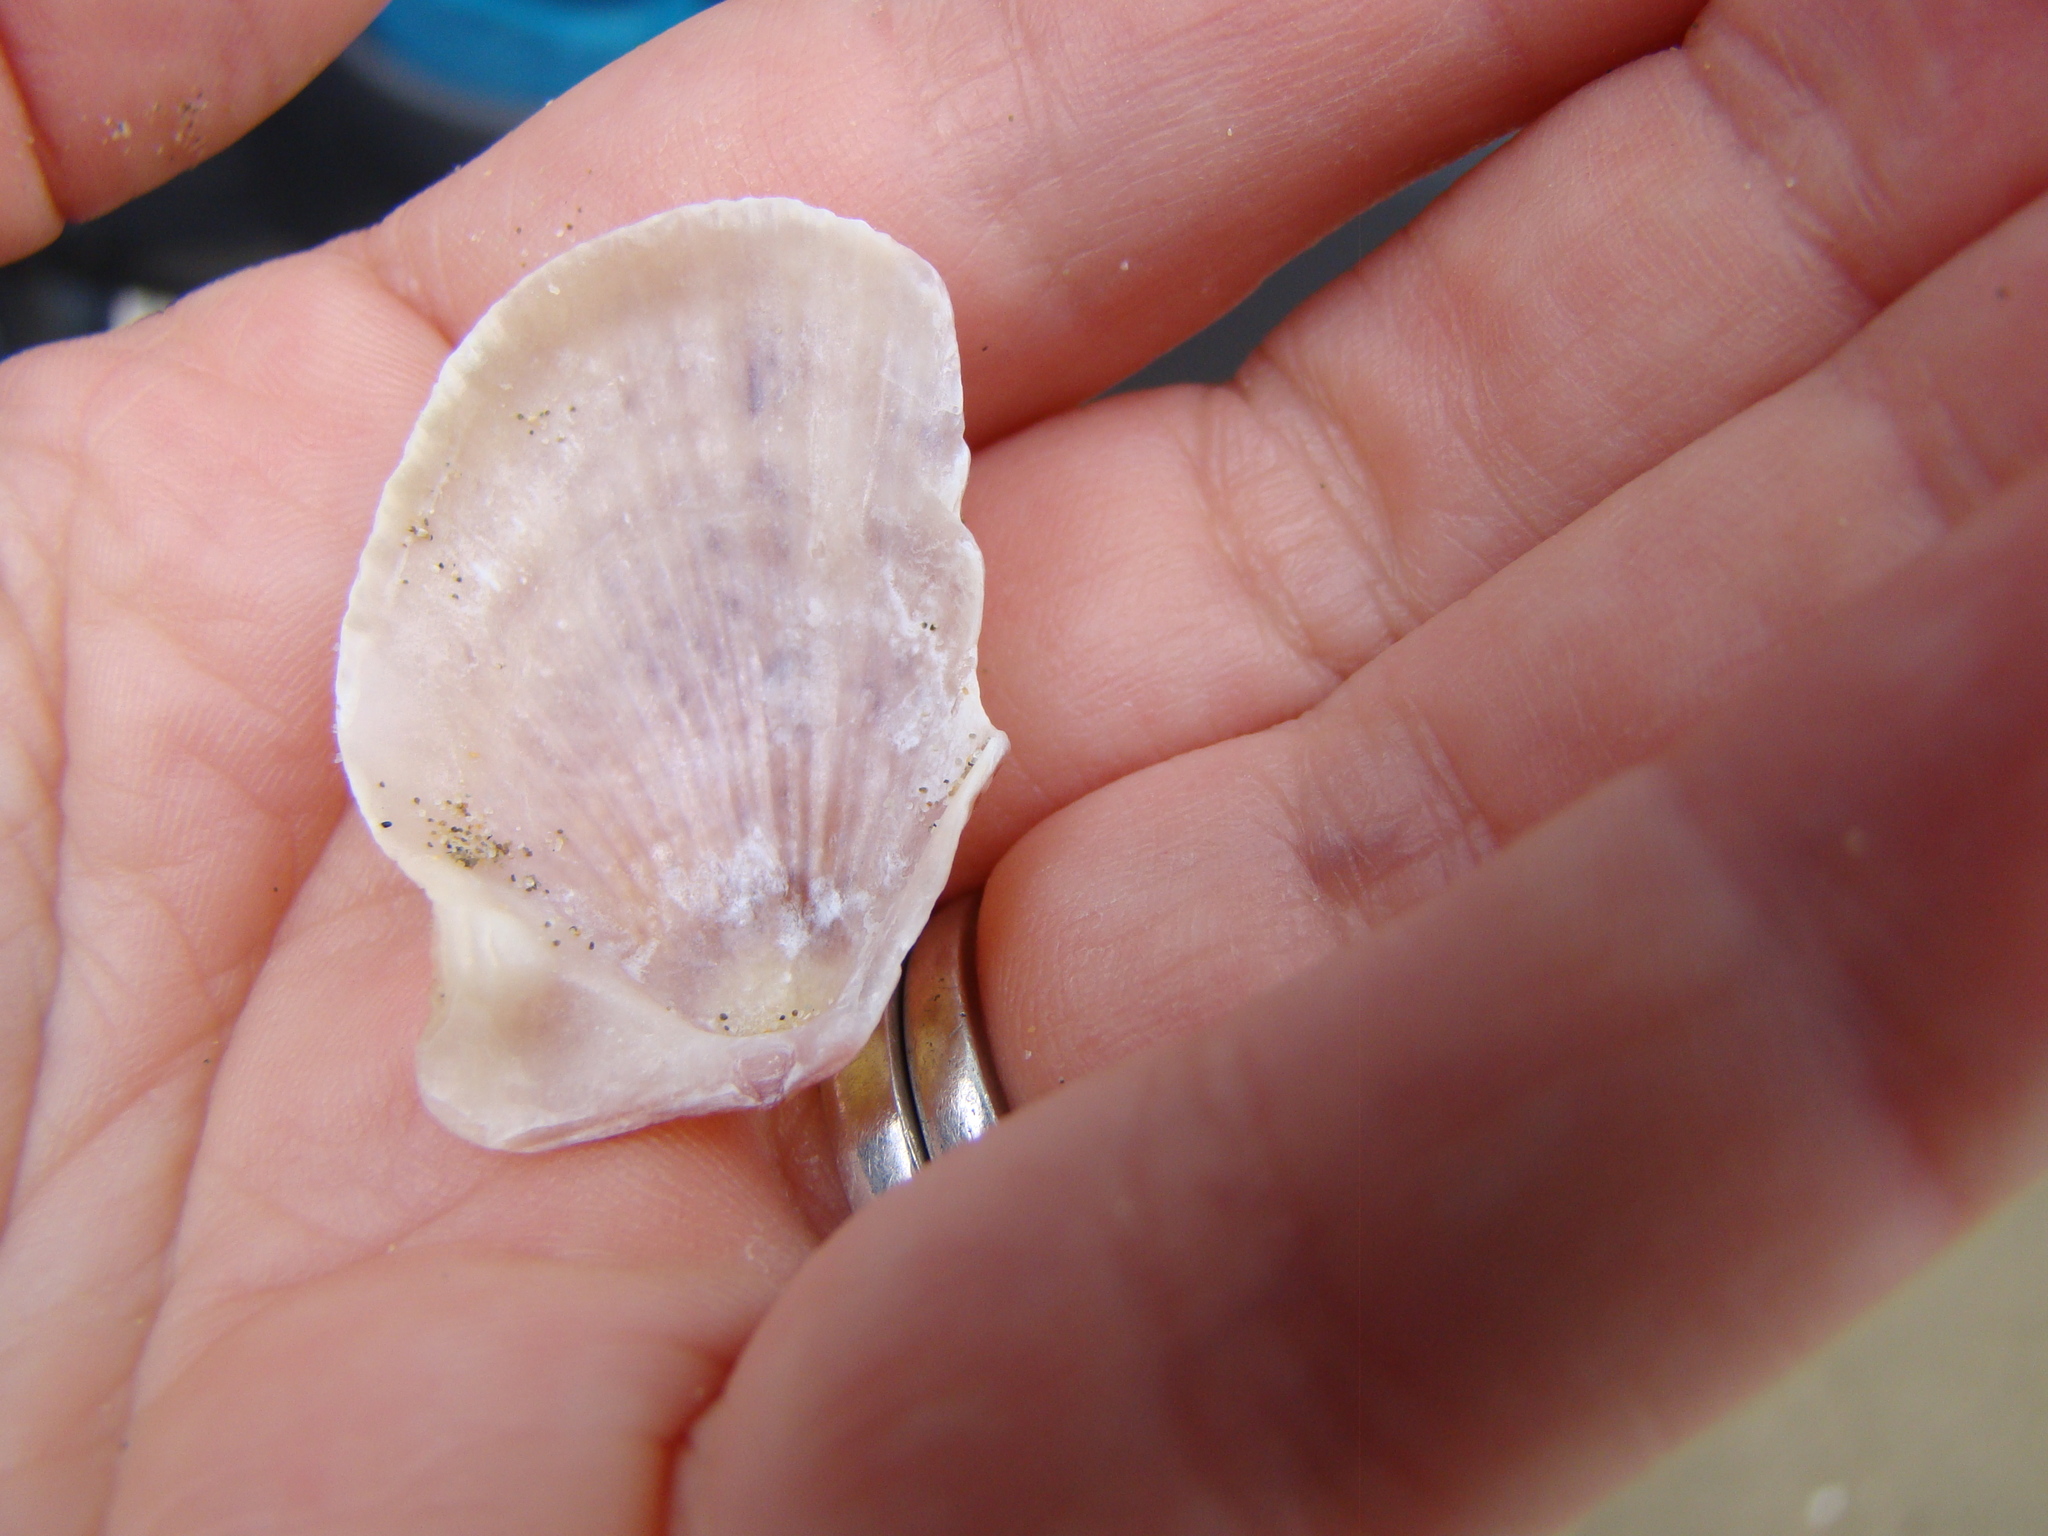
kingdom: Animalia
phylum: Mollusca
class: Bivalvia
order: Pectinida
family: Pectinidae
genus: Talochlamys
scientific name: Talochlamys zelandiae
